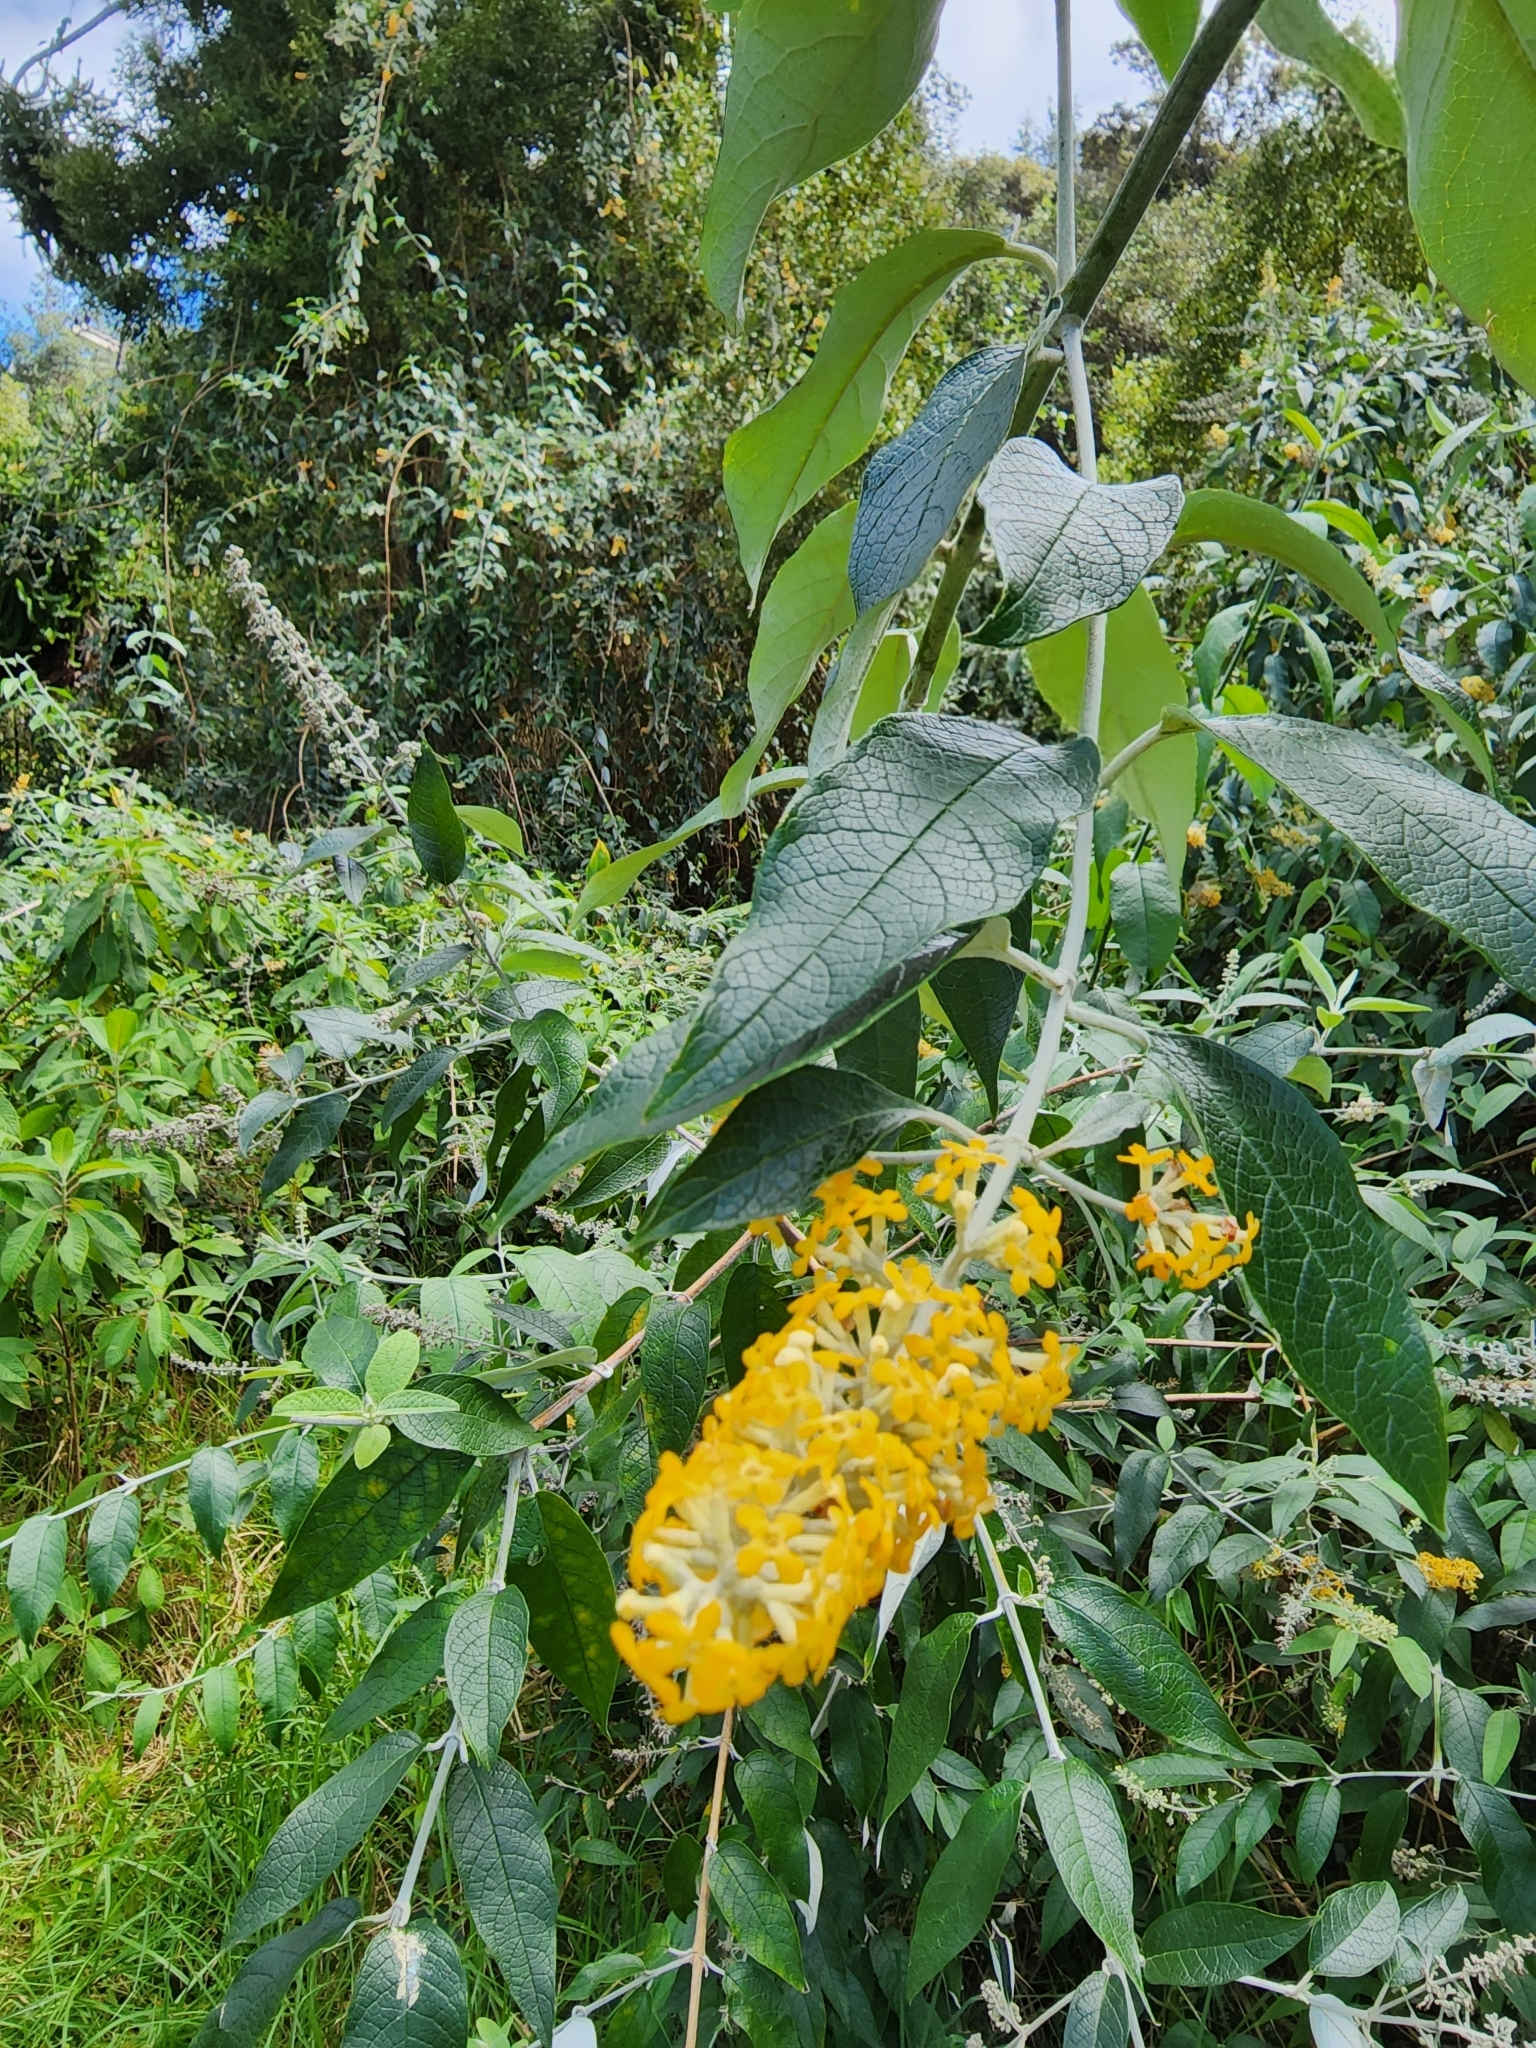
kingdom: Plantae
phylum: Tracheophyta
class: Magnoliopsida
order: Lamiales
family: Scrophulariaceae
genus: Buddleja
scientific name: Buddleja madagascariensis
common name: Smokebush
